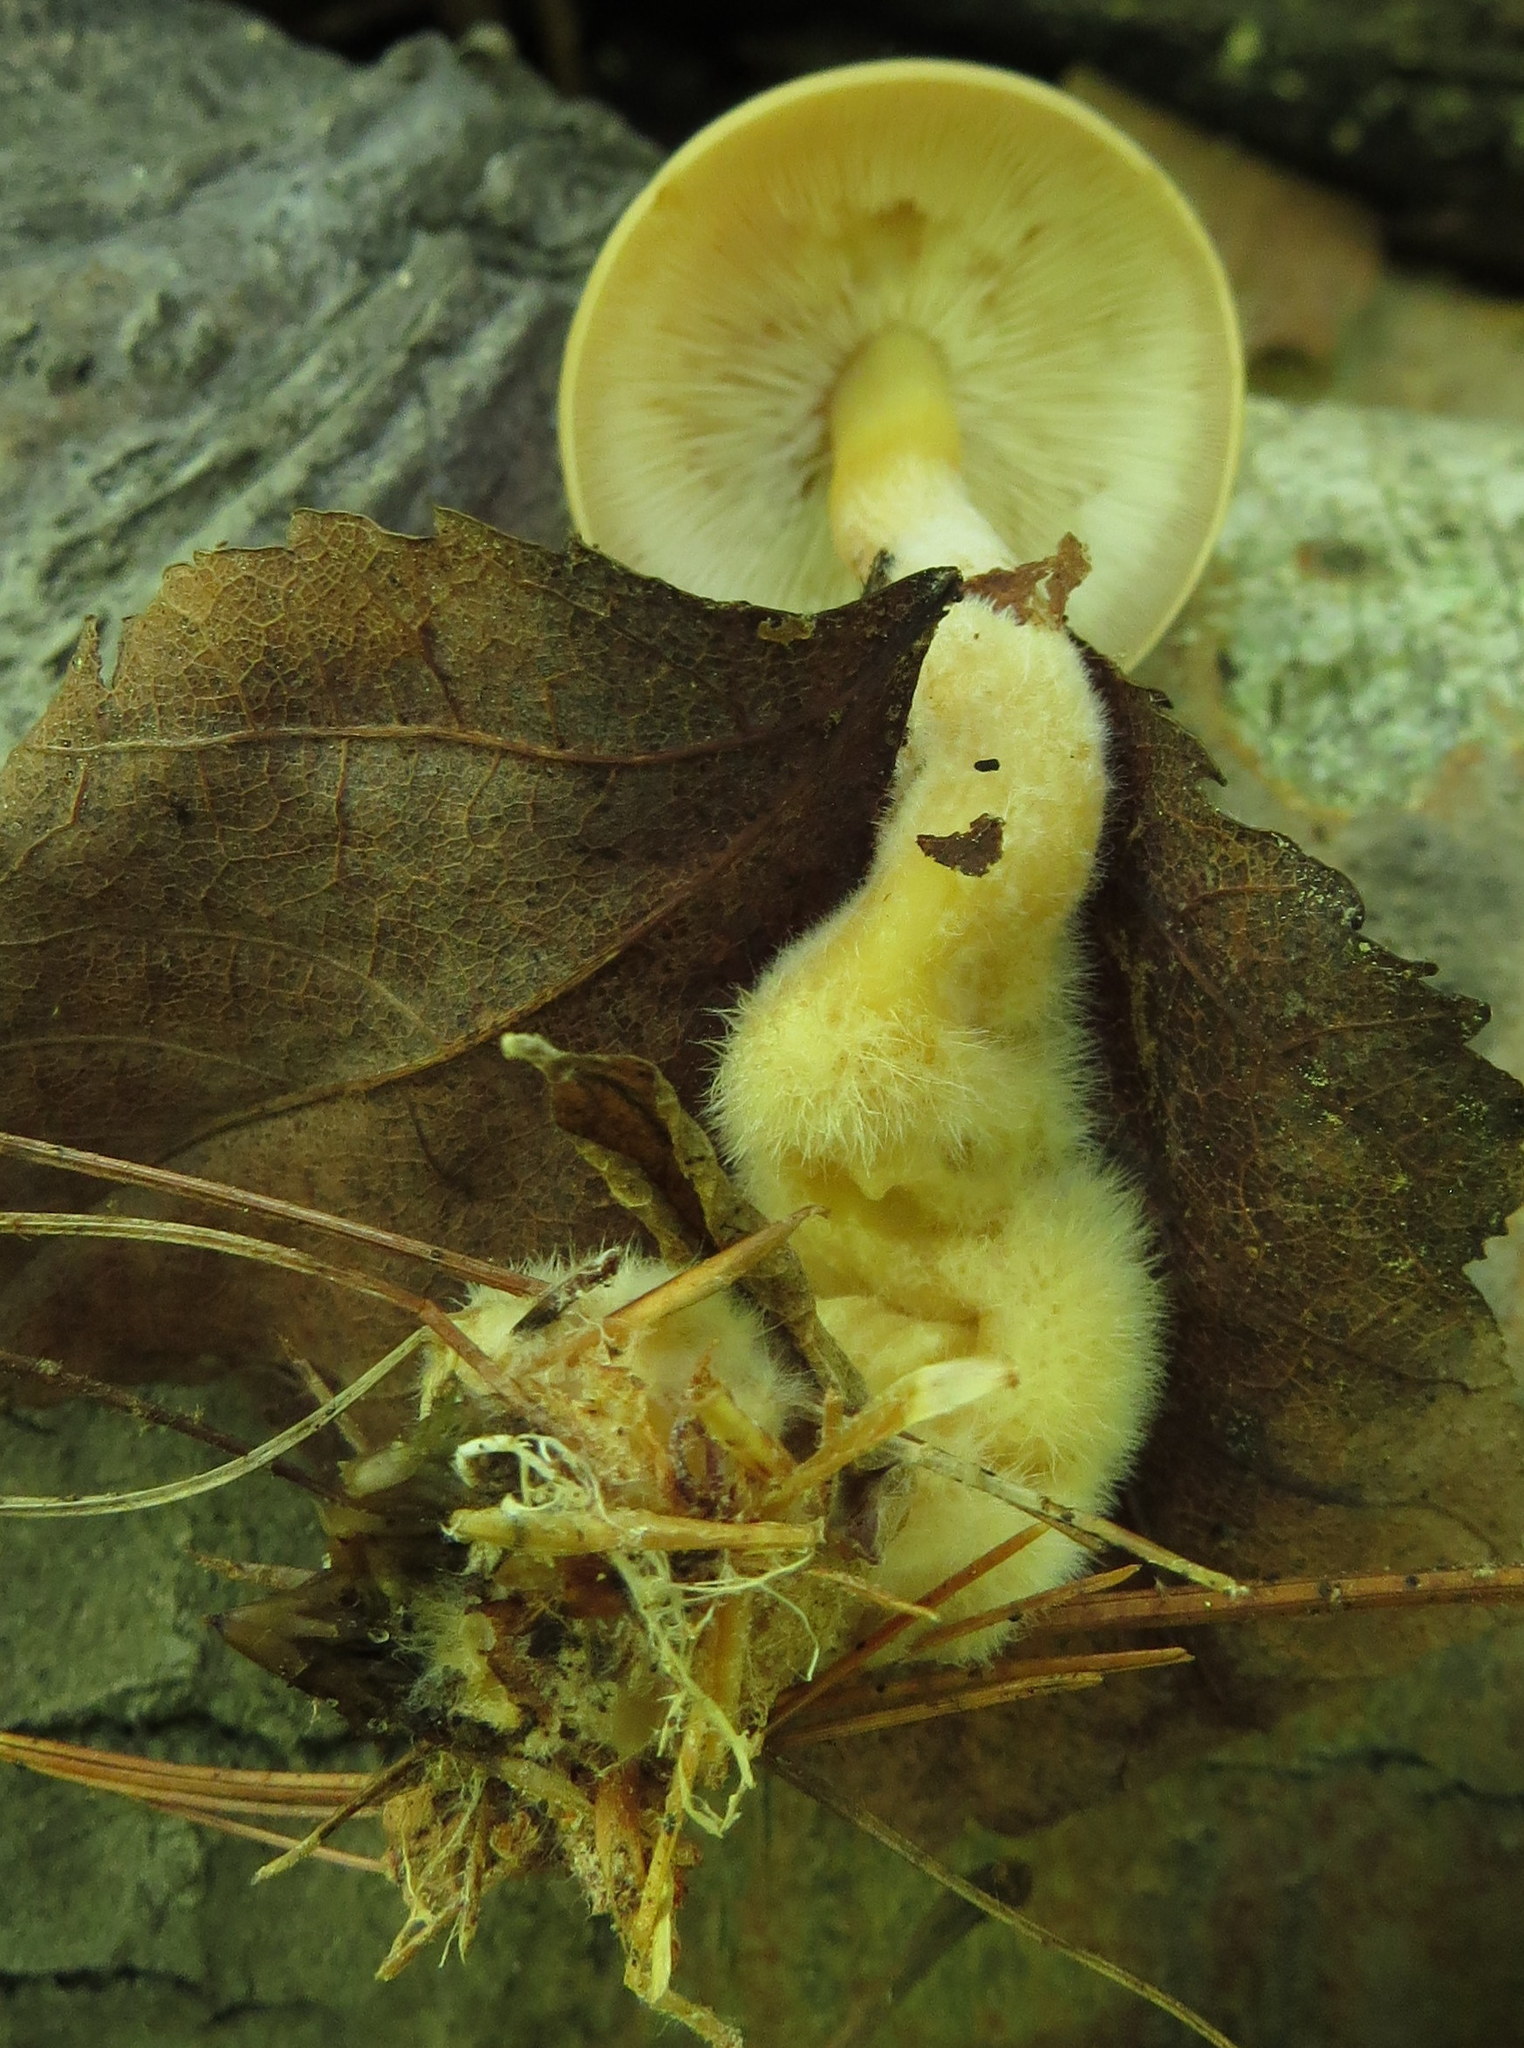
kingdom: Fungi
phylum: Basidiomycota
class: Agaricomycetes
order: Agaricales
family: Omphalotaceae
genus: Gymnopus
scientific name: Gymnopus dryophilus
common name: Penny top
